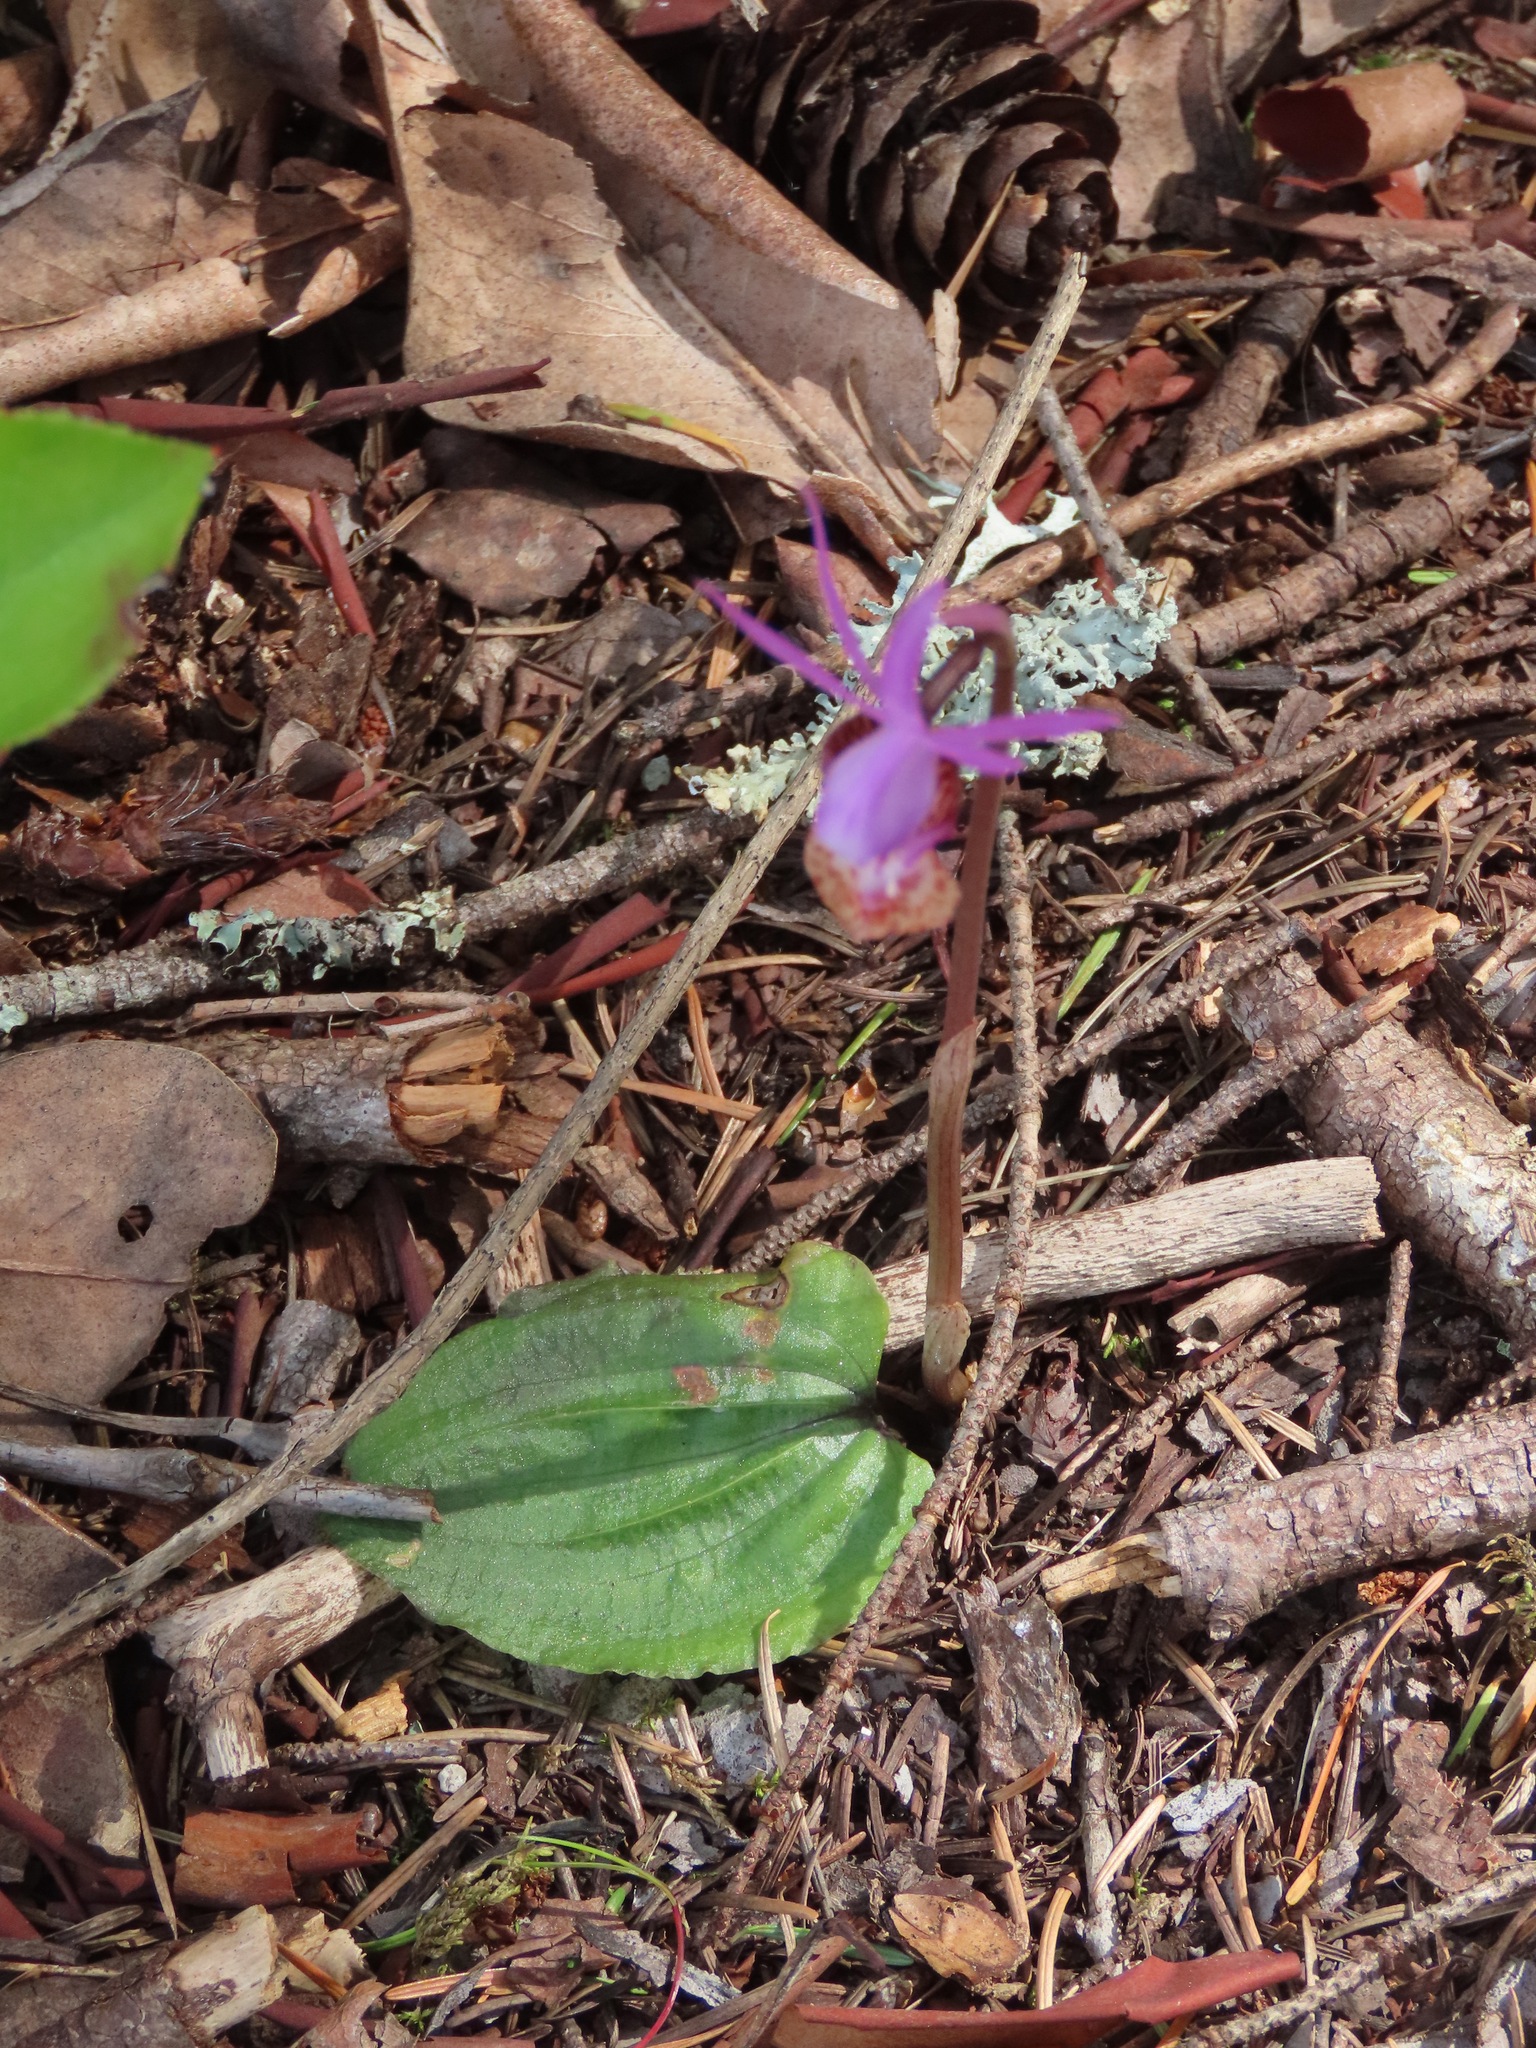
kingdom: Plantae
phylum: Tracheophyta
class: Liliopsida
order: Asparagales
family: Orchidaceae
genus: Calypso
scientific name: Calypso bulbosa
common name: Calypso
